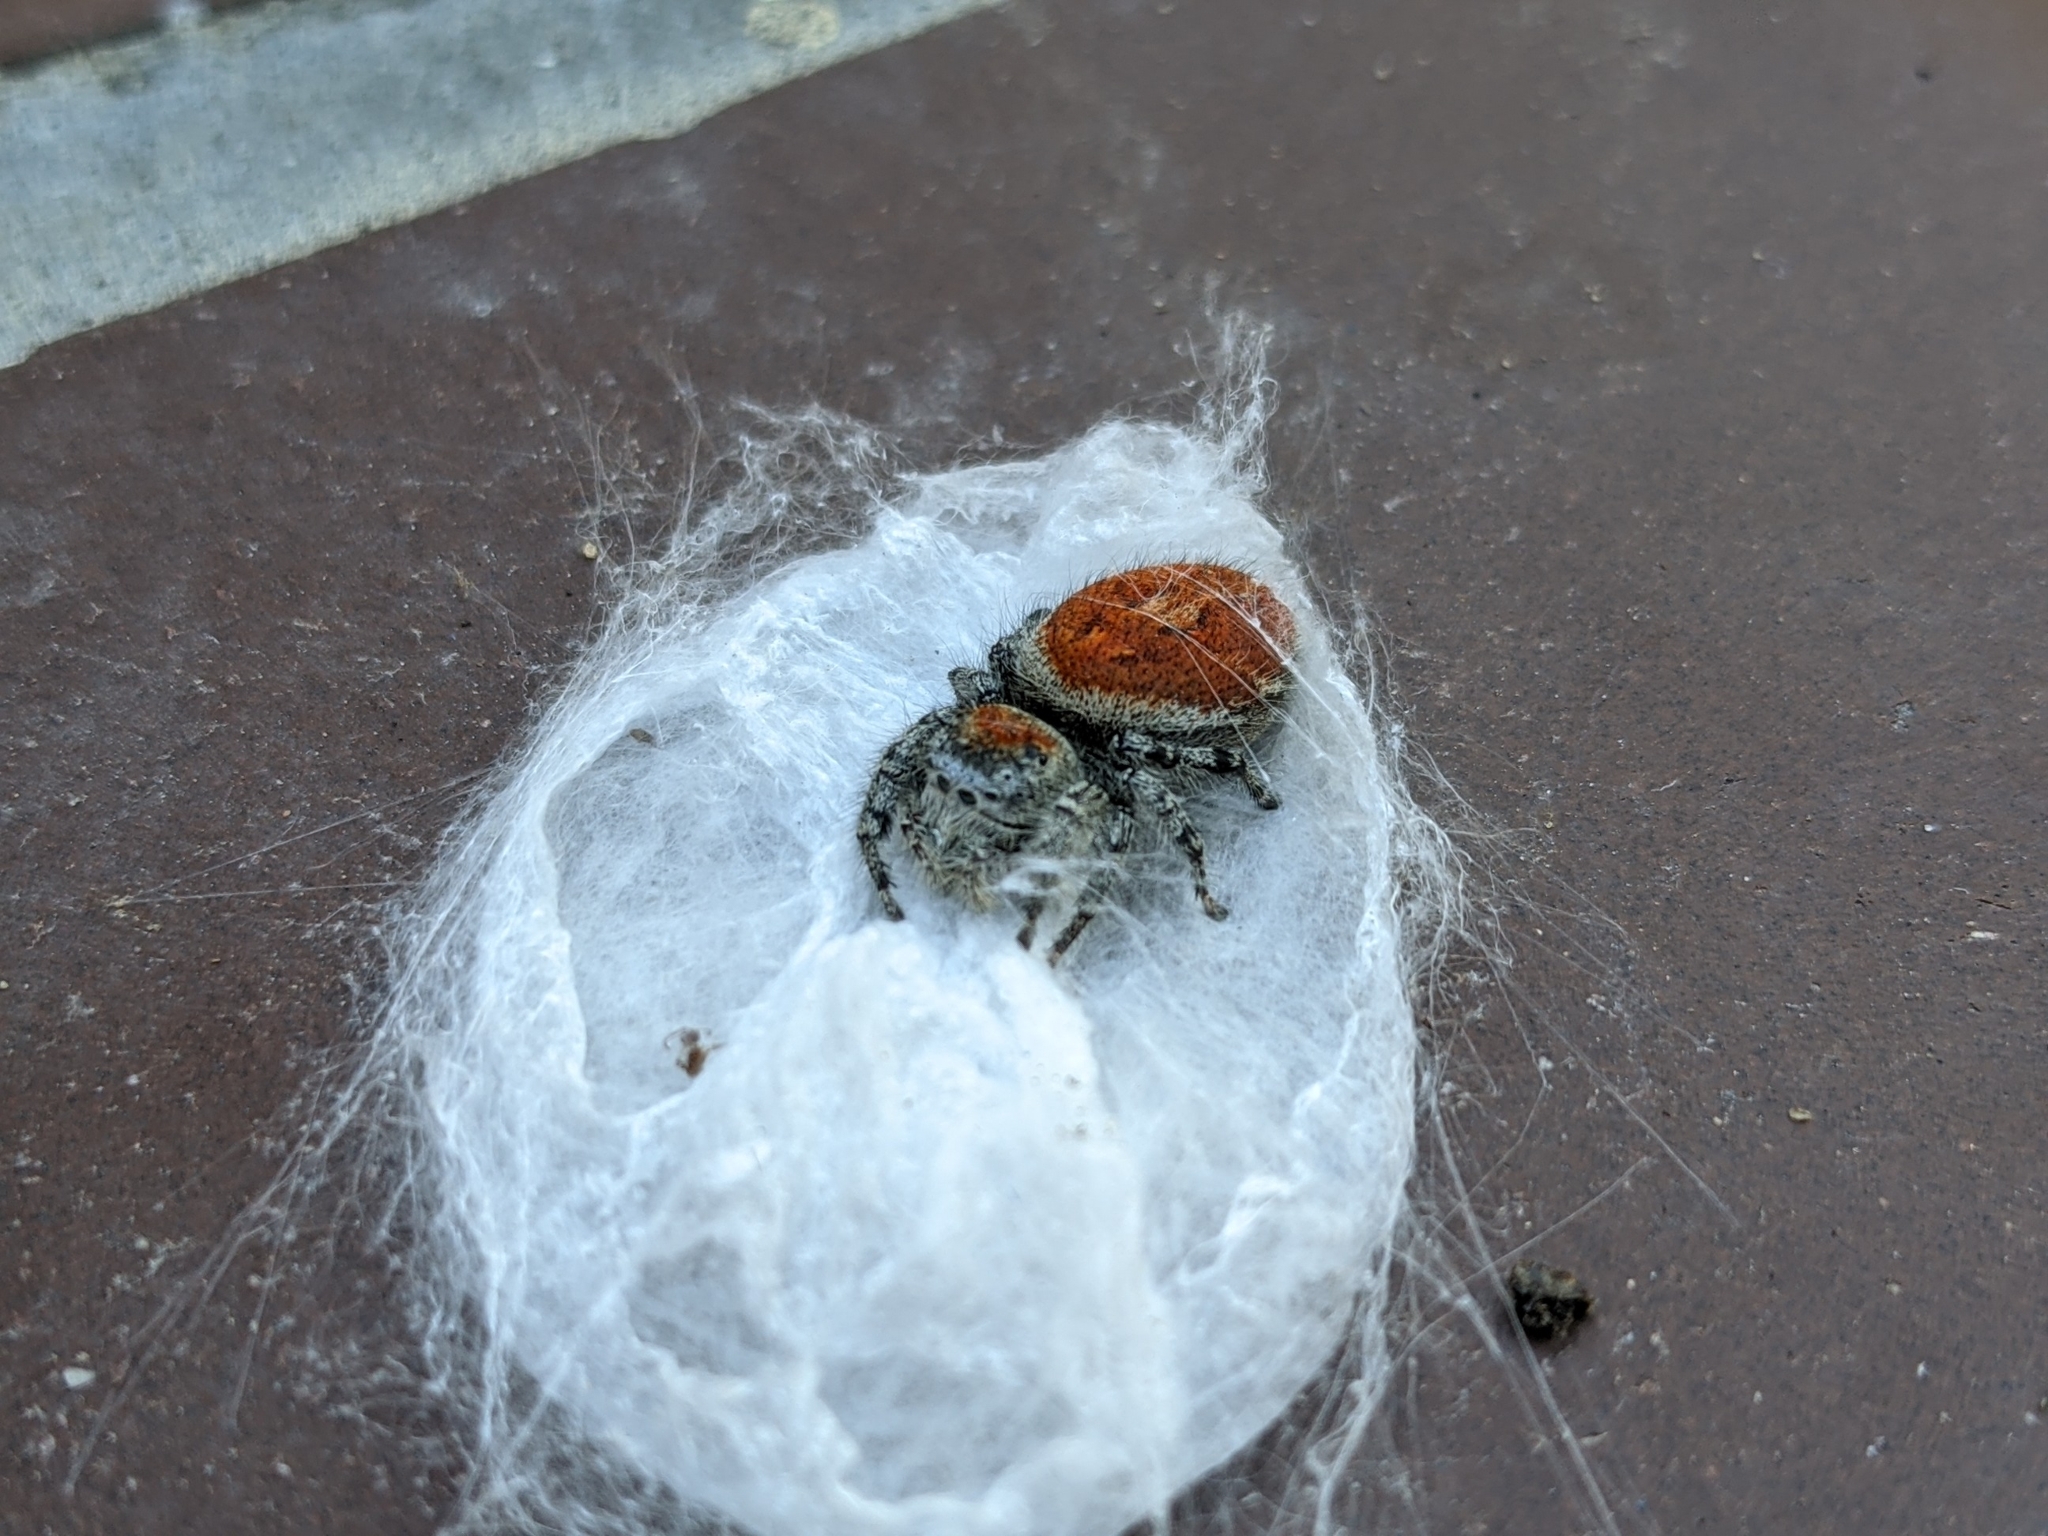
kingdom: Animalia
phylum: Arthropoda
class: Arachnida
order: Araneae
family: Salticidae
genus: Phidippus
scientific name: Phidippus adumbratus
